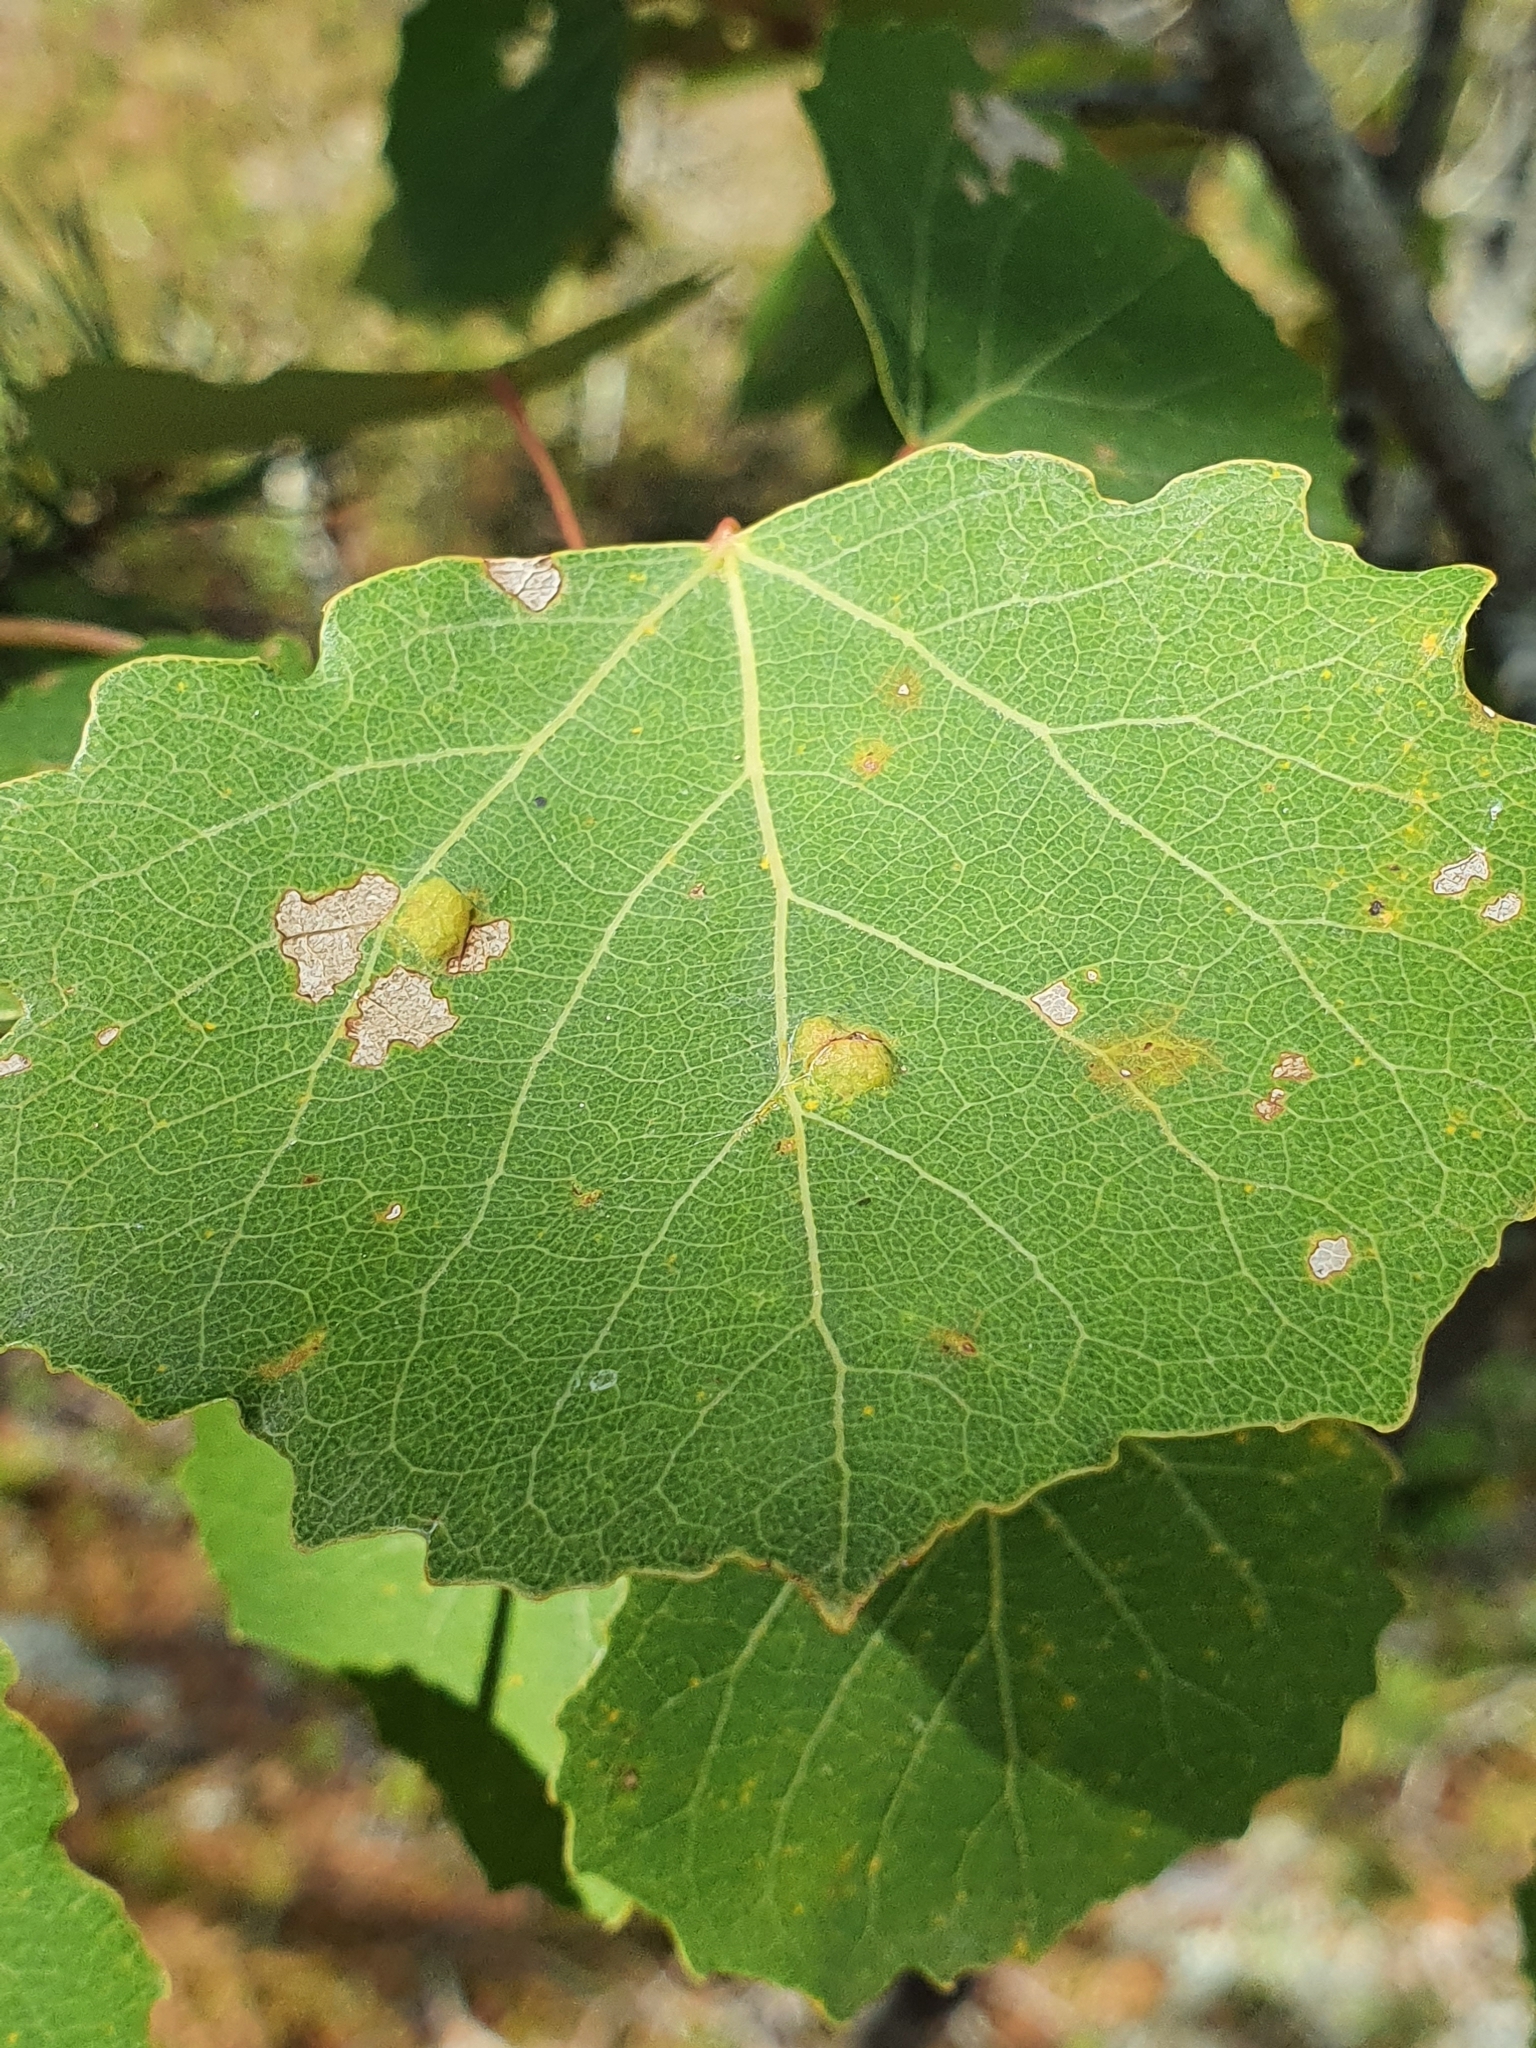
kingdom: Animalia
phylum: Arthropoda
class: Arachnida
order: Trombidiformes
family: Eriophyidae
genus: Phyllocoptes
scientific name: Phyllocoptes populi
